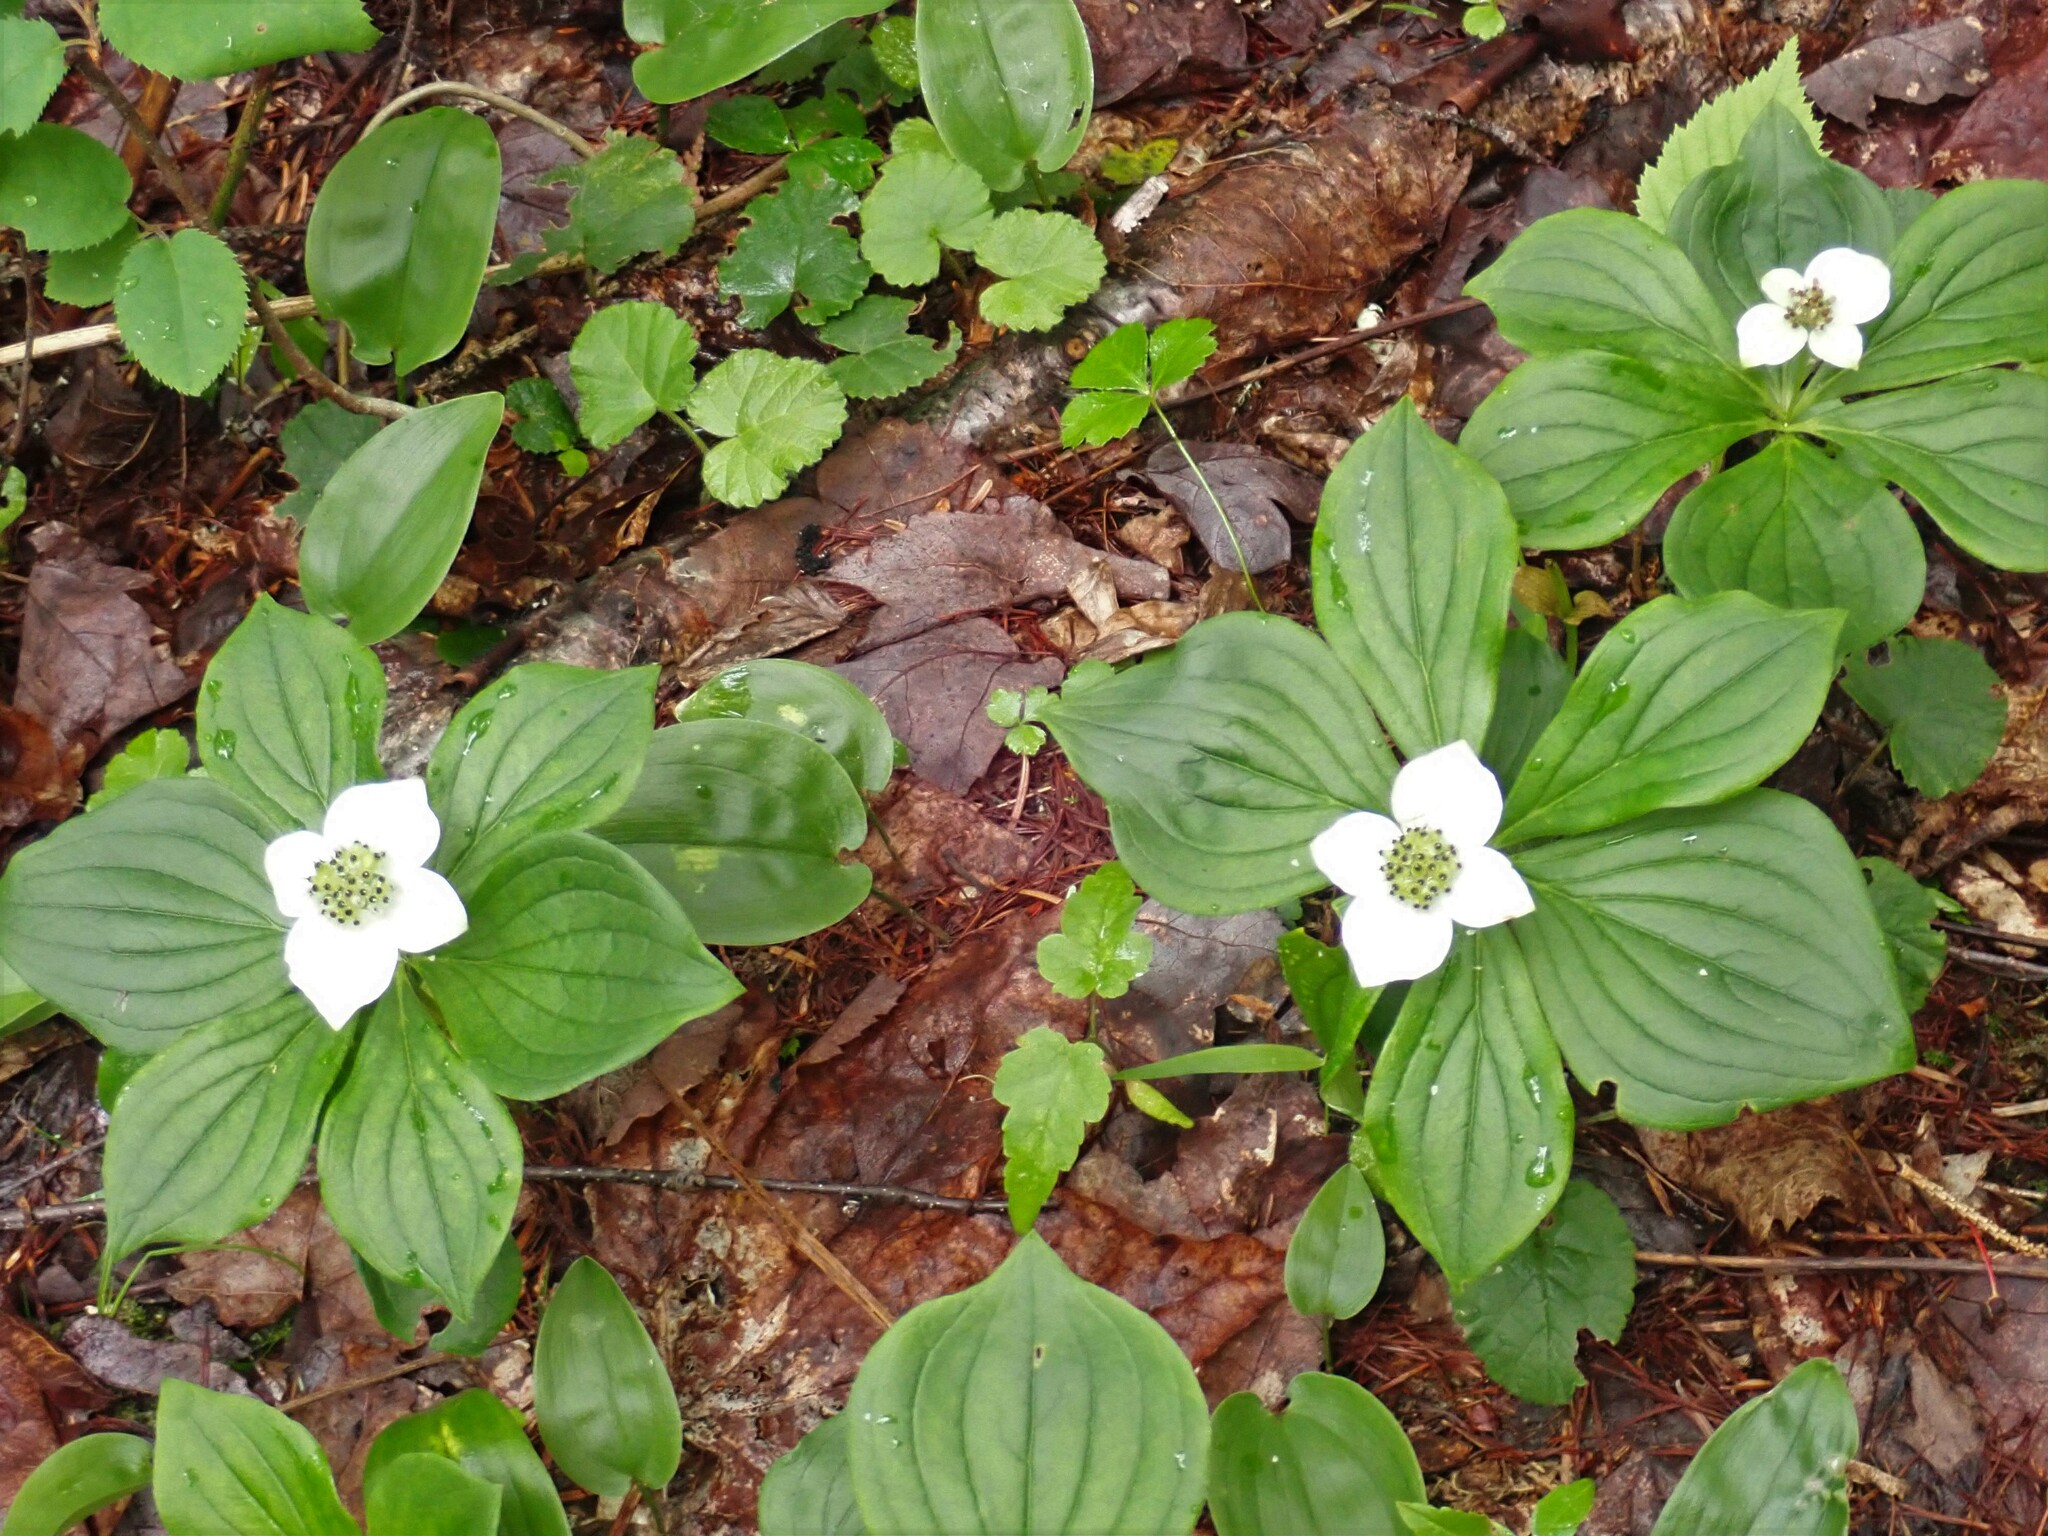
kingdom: Plantae
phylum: Tracheophyta
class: Magnoliopsida
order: Cornales
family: Cornaceae
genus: Cornus
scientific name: Cornus canadensis
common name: Creeping dogwood
